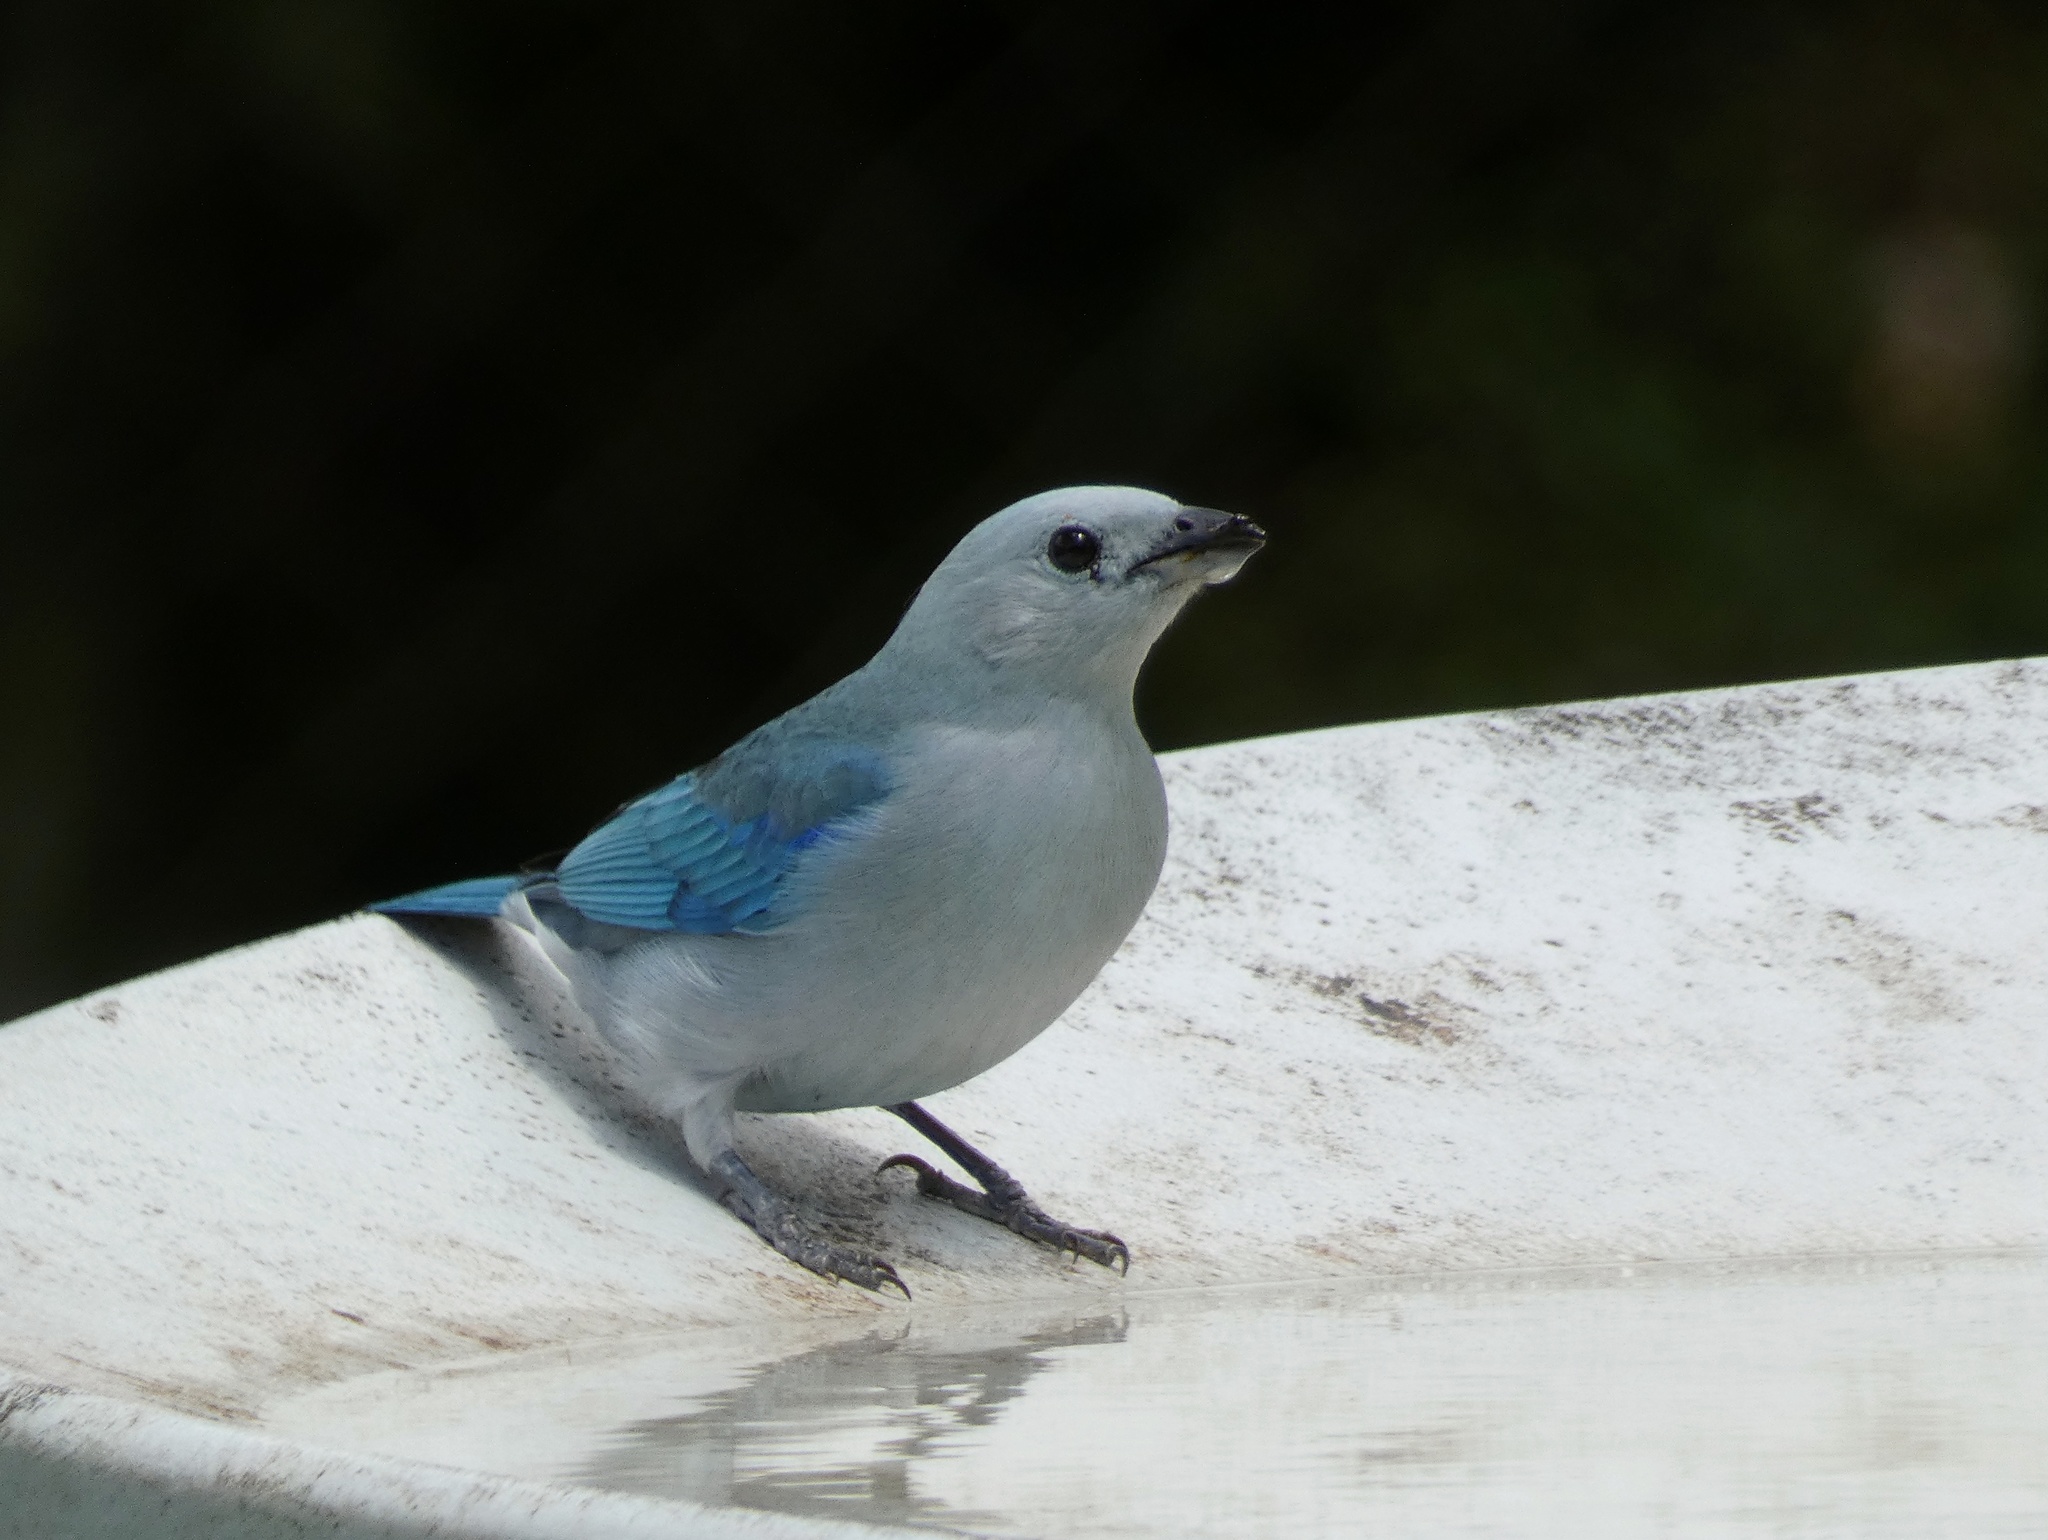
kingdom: Animalia
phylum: Chordata
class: Aves
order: Passeriformes
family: Thraupidae
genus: Thraupis
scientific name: Thraupis episcopus
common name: Blue-grey tanager
